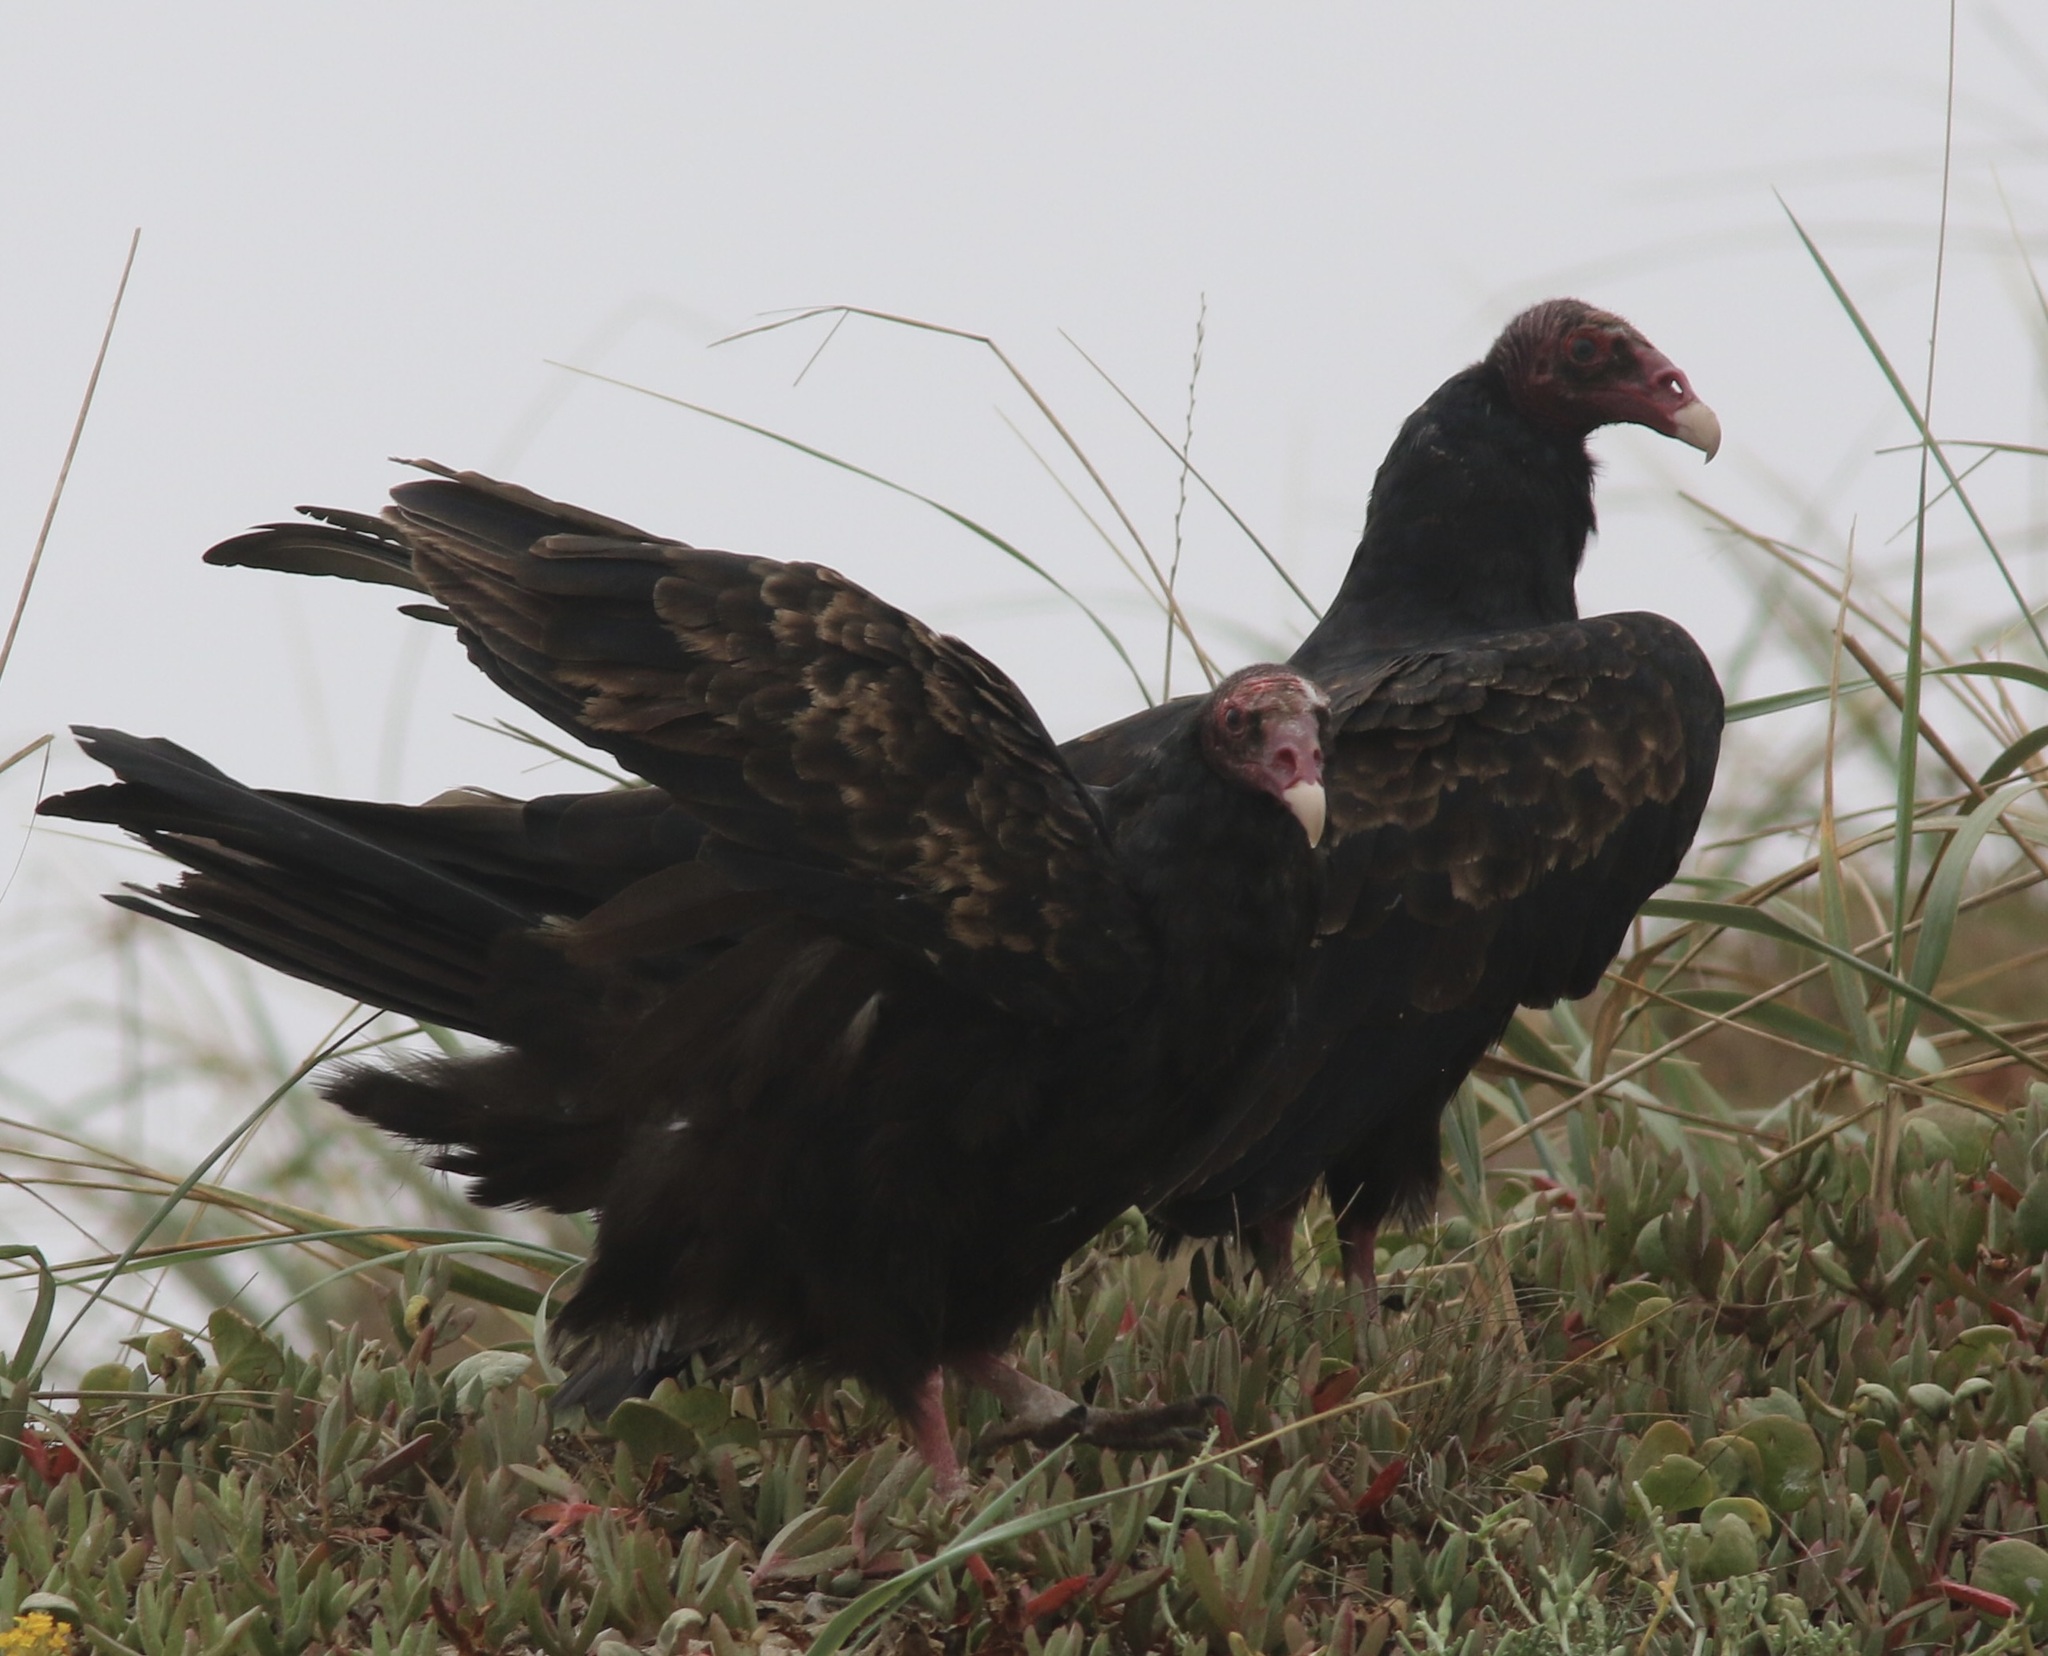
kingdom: Animalia
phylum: Chordata
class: Aves
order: Accipitriformes
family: Cathartidae
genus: Cathartes
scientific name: Cathartes aura
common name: Turkey vulture
